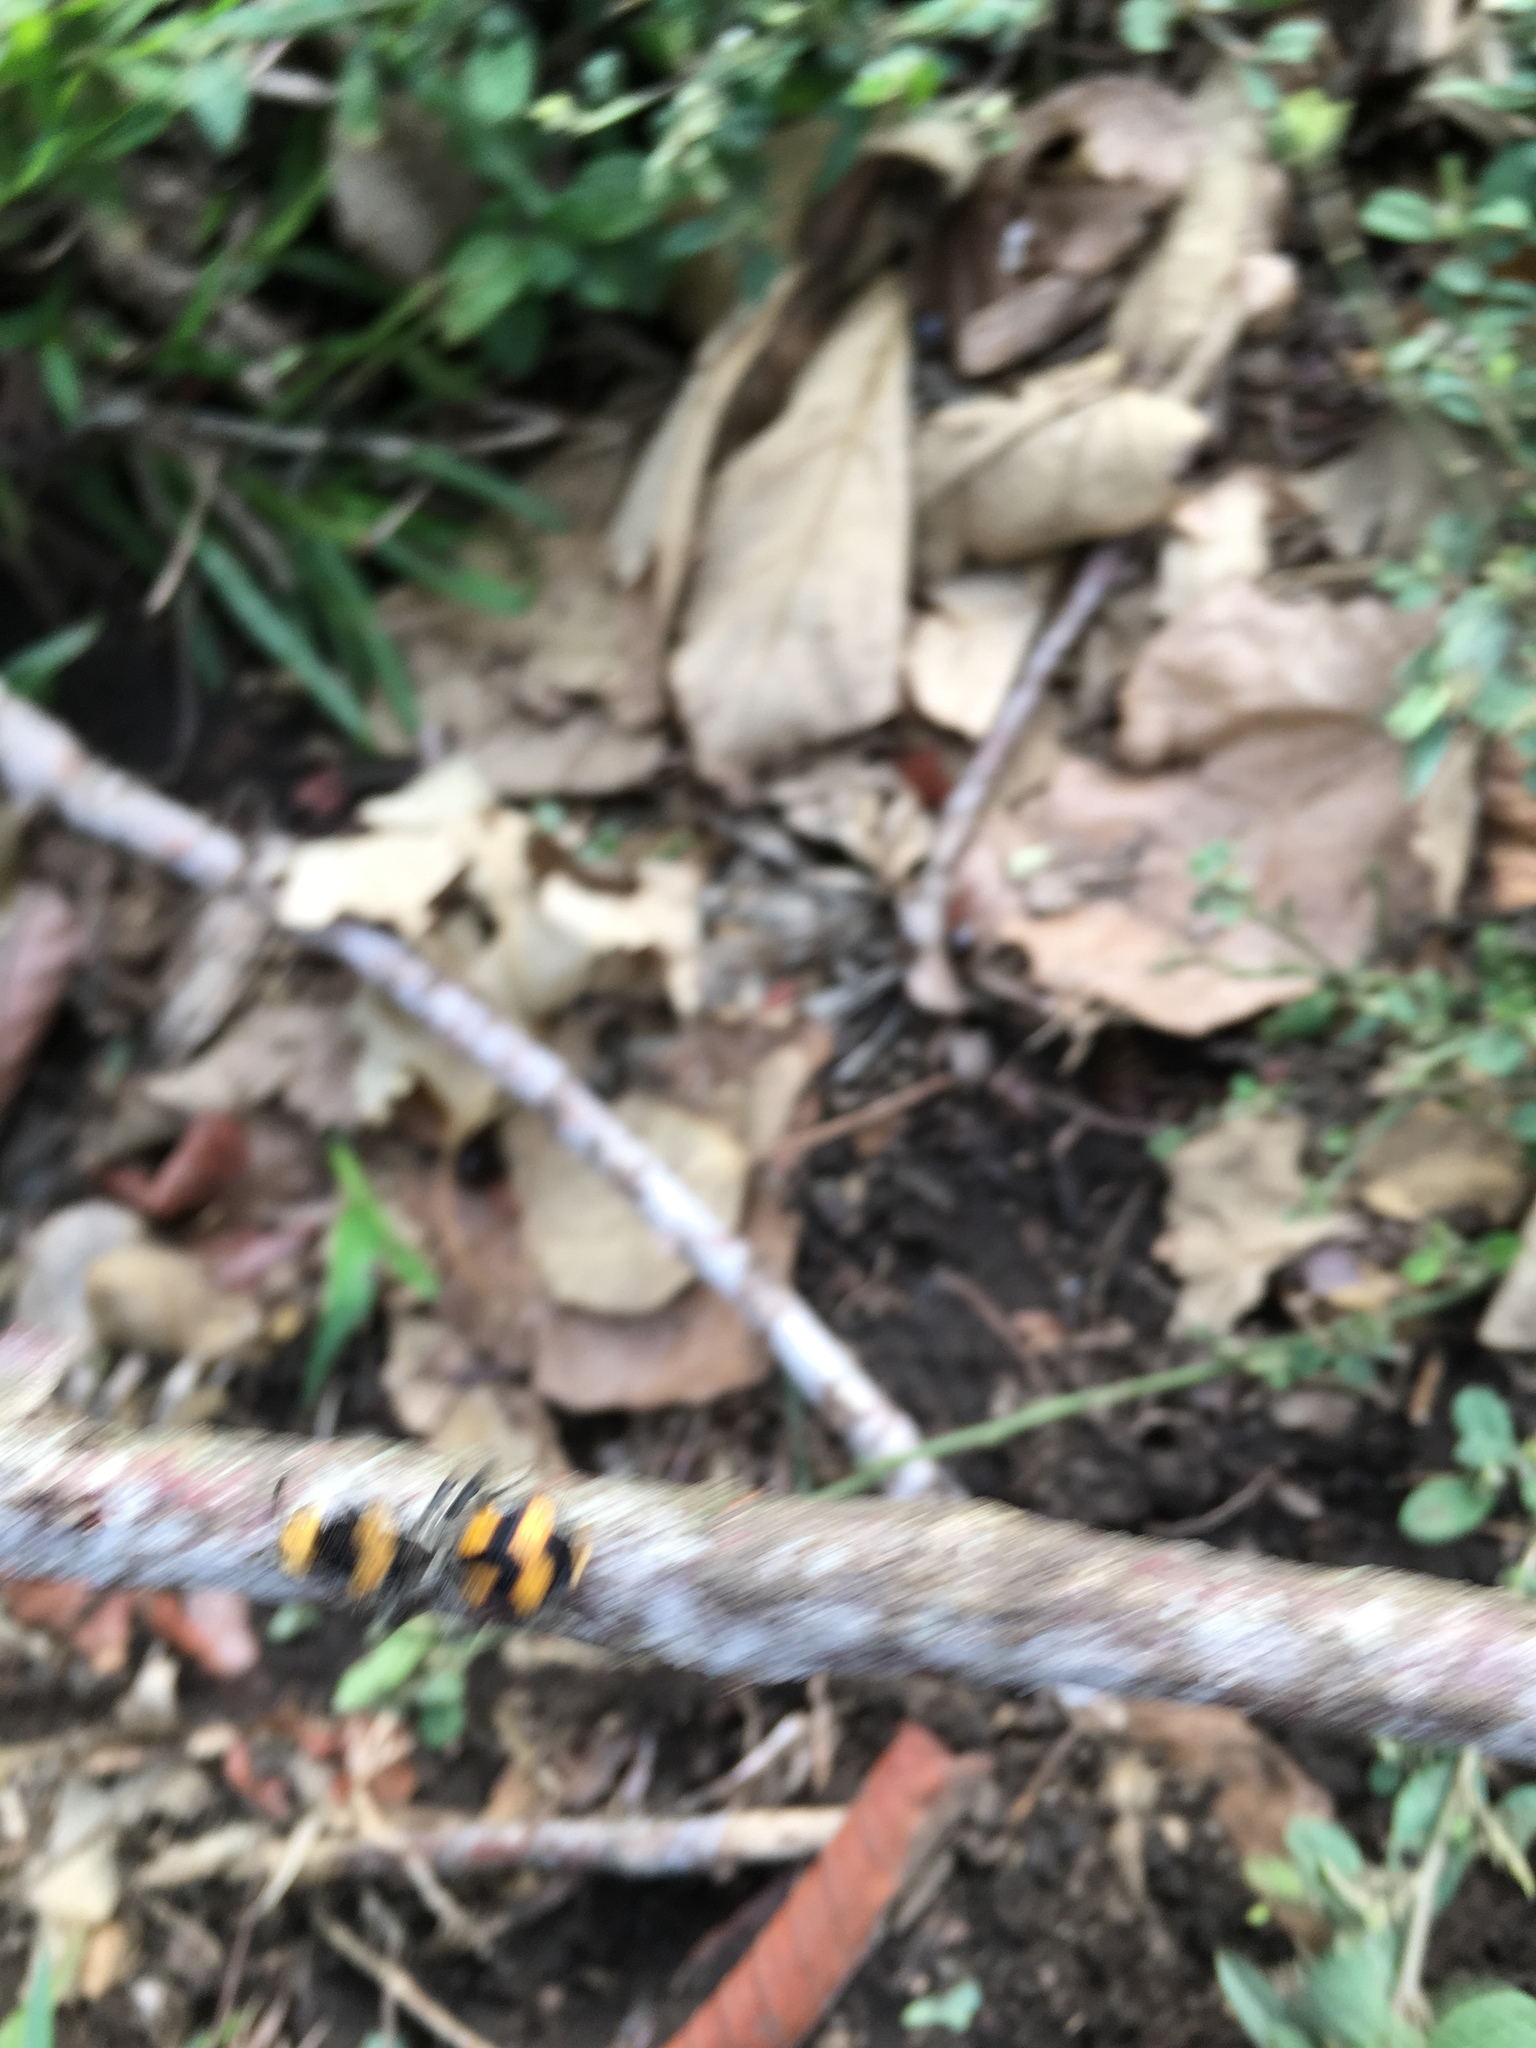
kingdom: Animalia
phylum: Arthropoda
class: Insecta
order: Hymenoptera
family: Mutillidae
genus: Dasymutilla
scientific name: Dasymutilla pulchra
